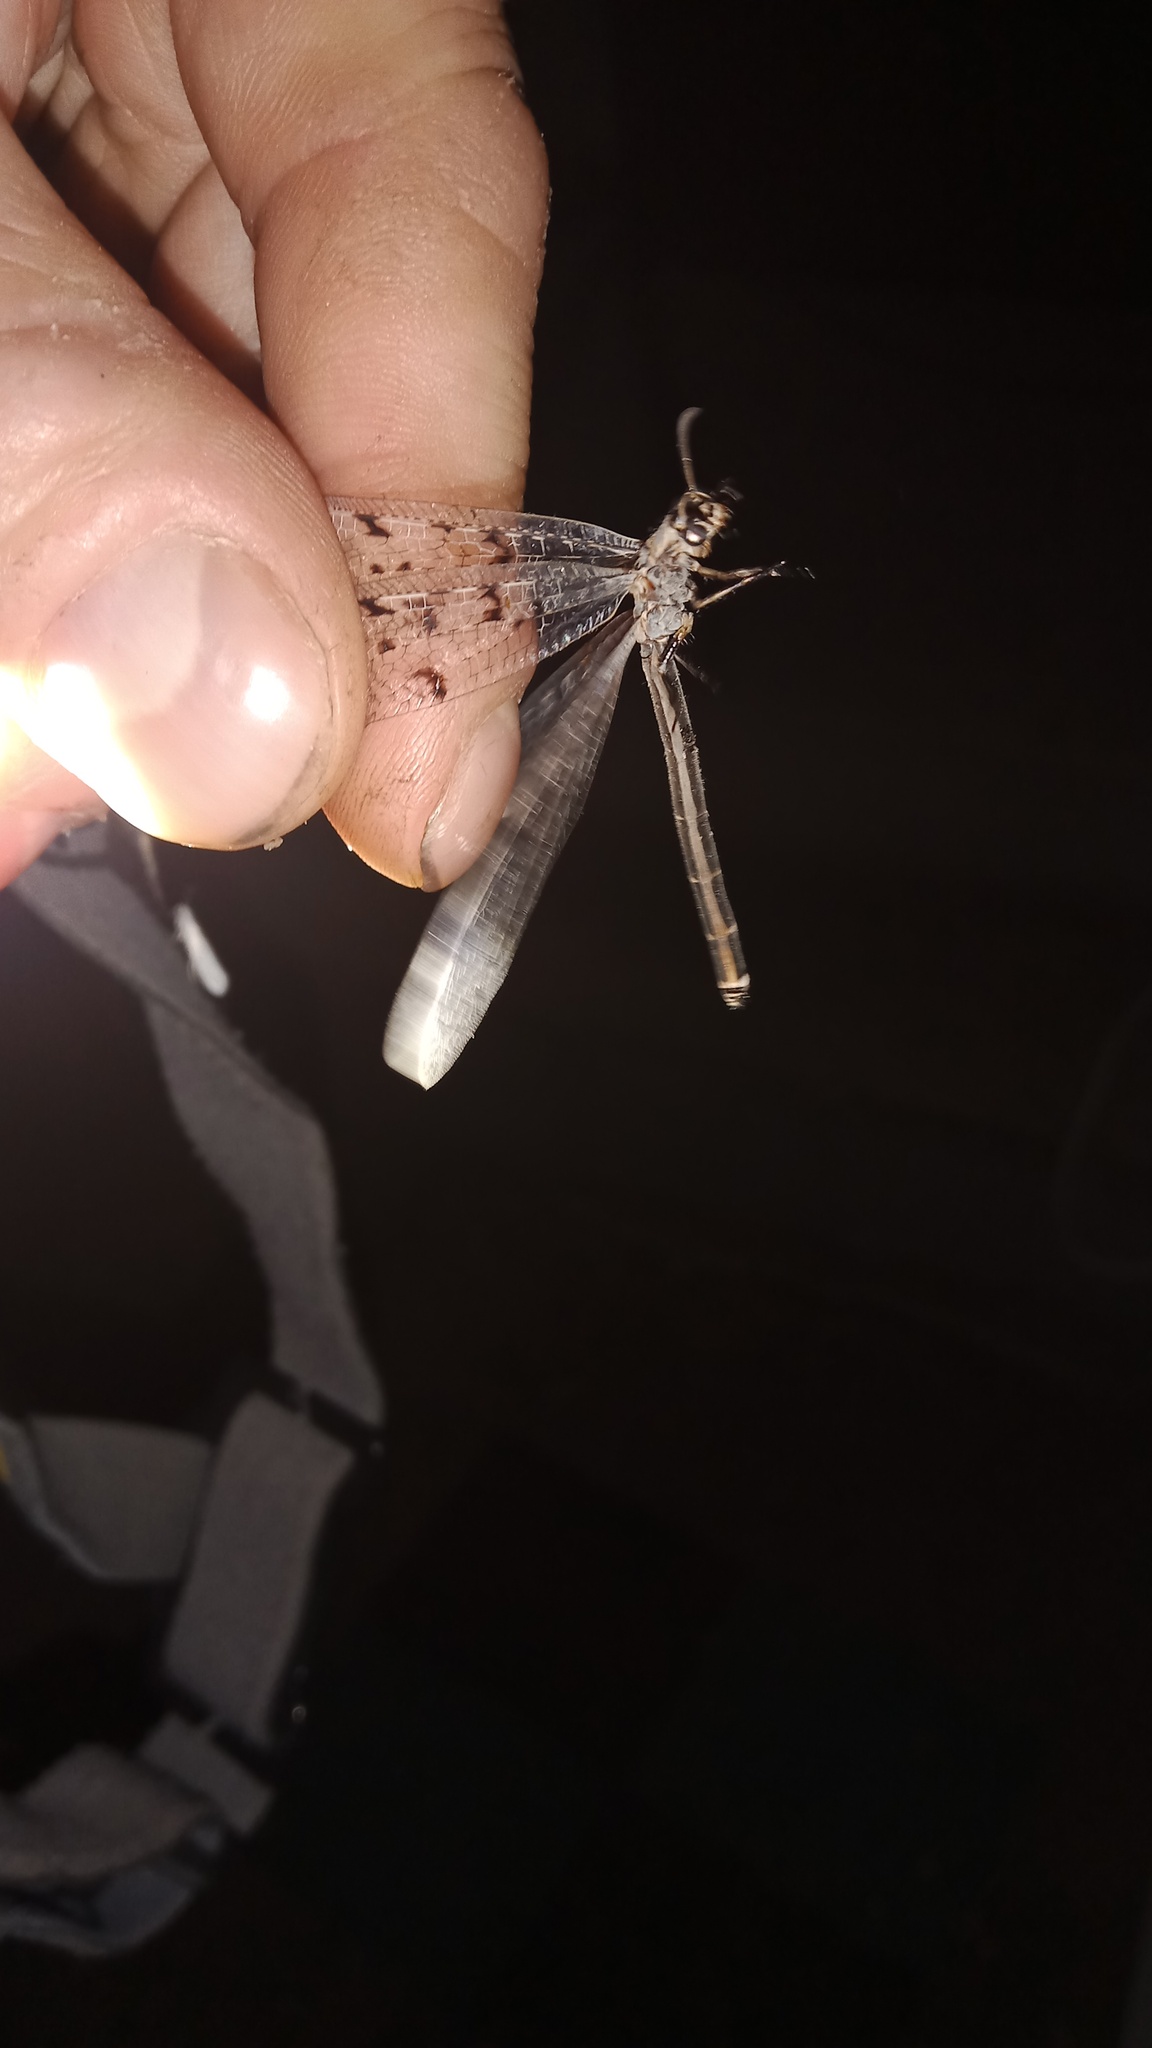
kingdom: Animalia
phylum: Arthropoda
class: Insecta
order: Neuroptera
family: Myrmeleontidae
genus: Euroleon
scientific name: Euroleon nostras
